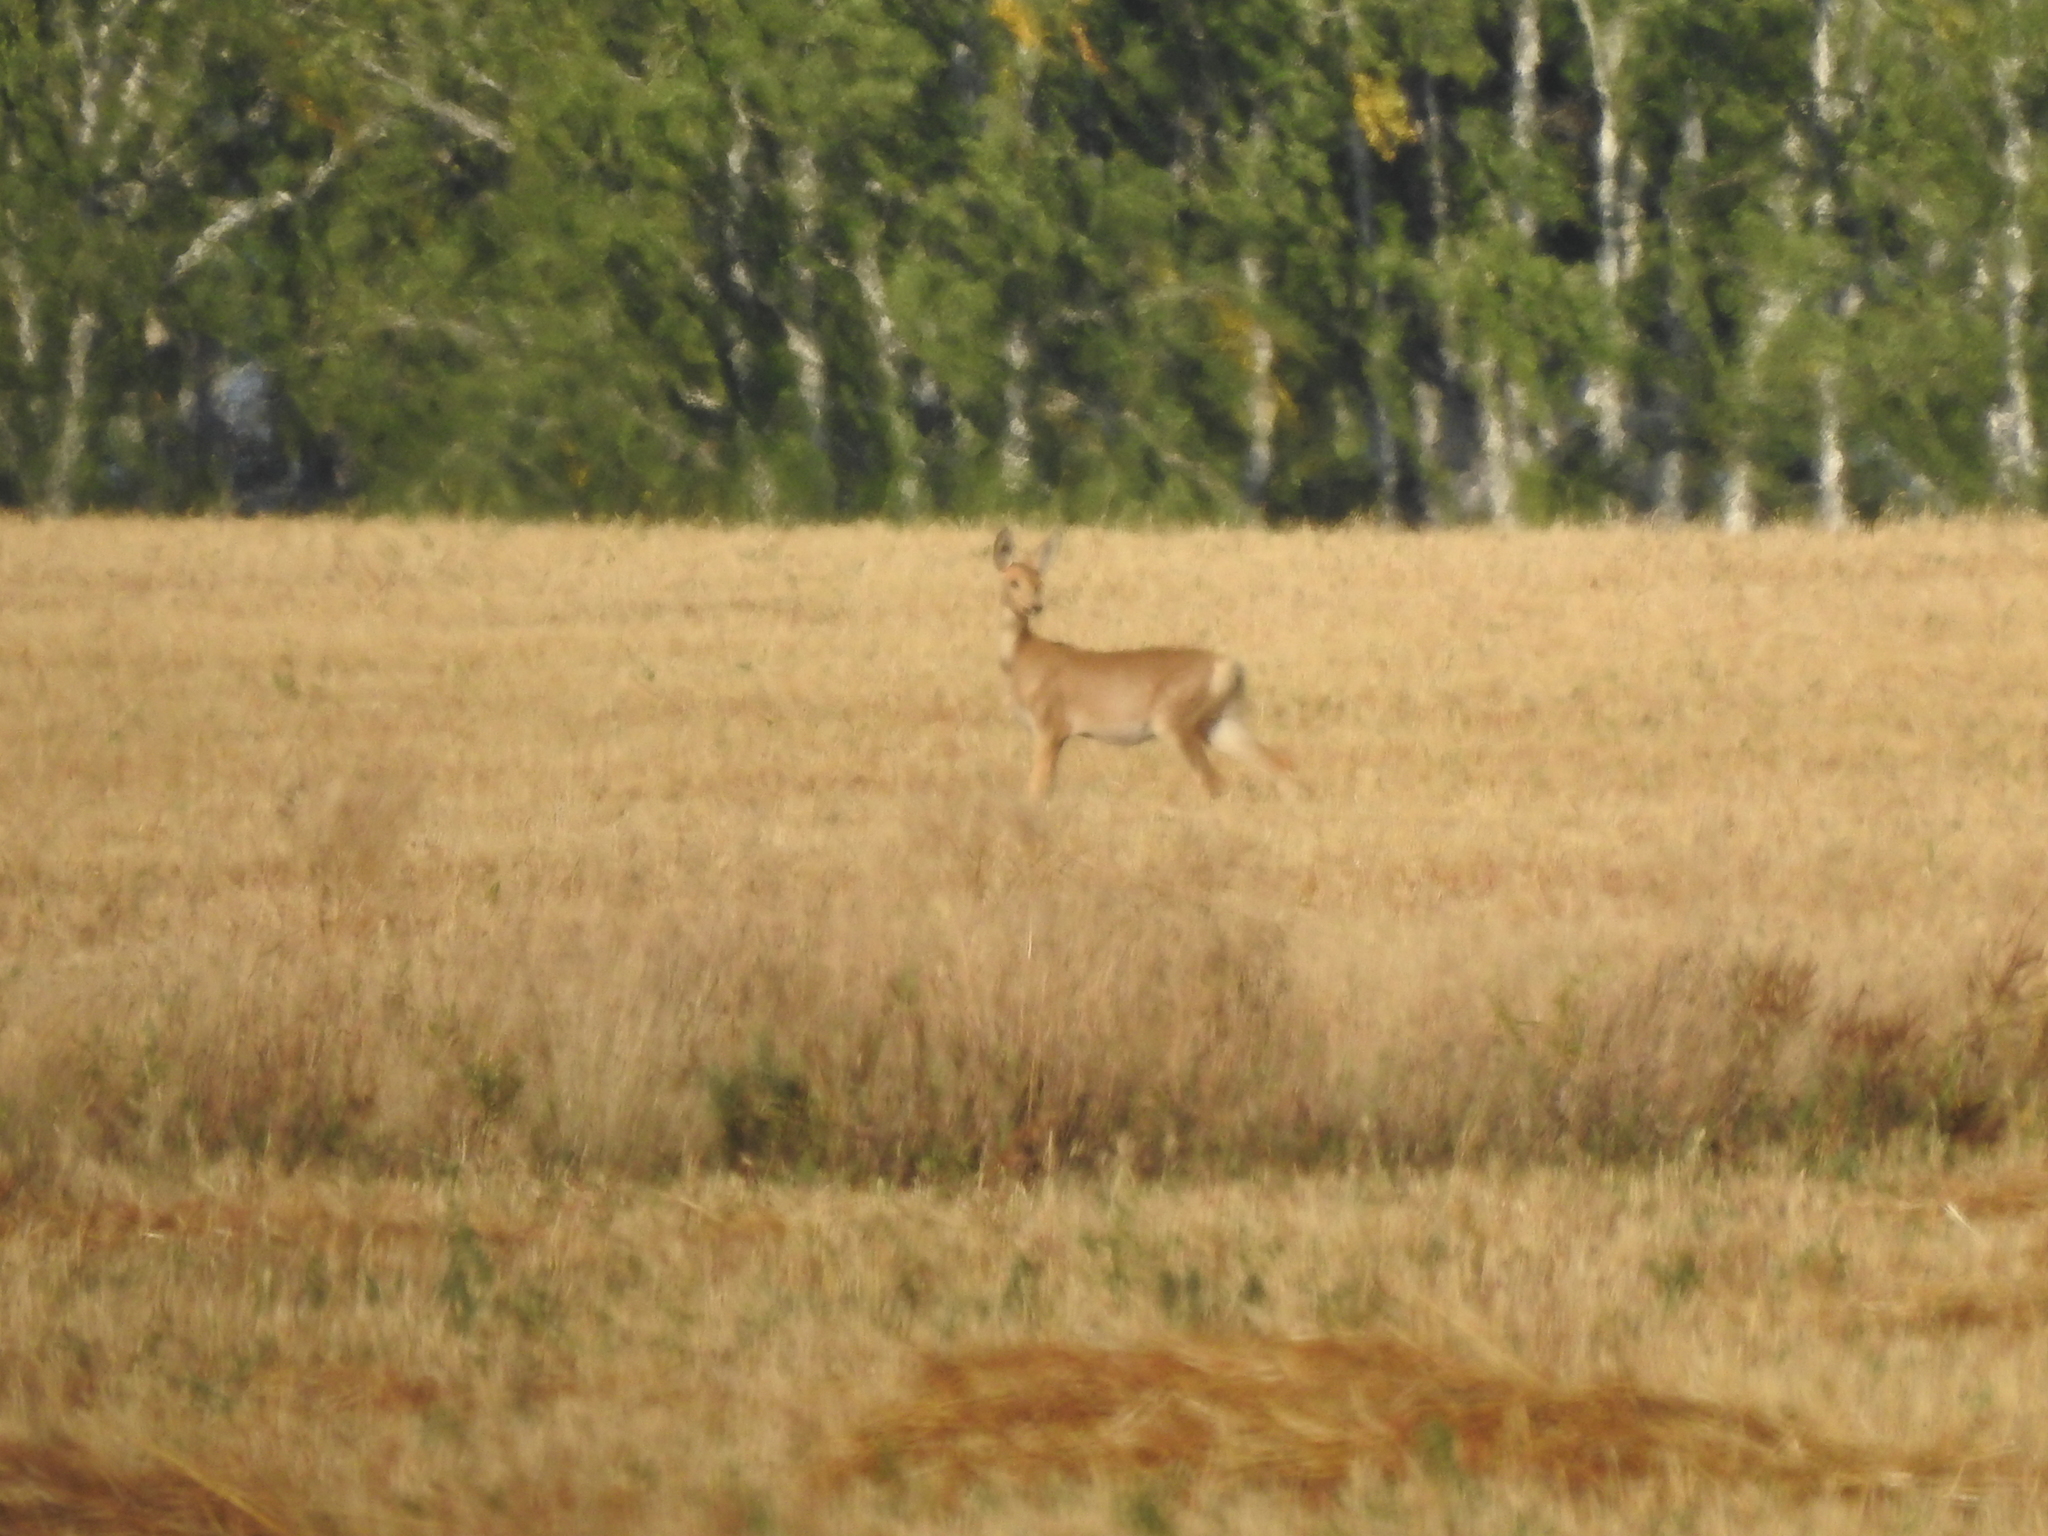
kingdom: Animalia
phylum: Chordata
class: Mammalia
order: Artiodactyla
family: Cervidae
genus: Capreolus
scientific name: Capreolus pygargus
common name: Siberian roe
